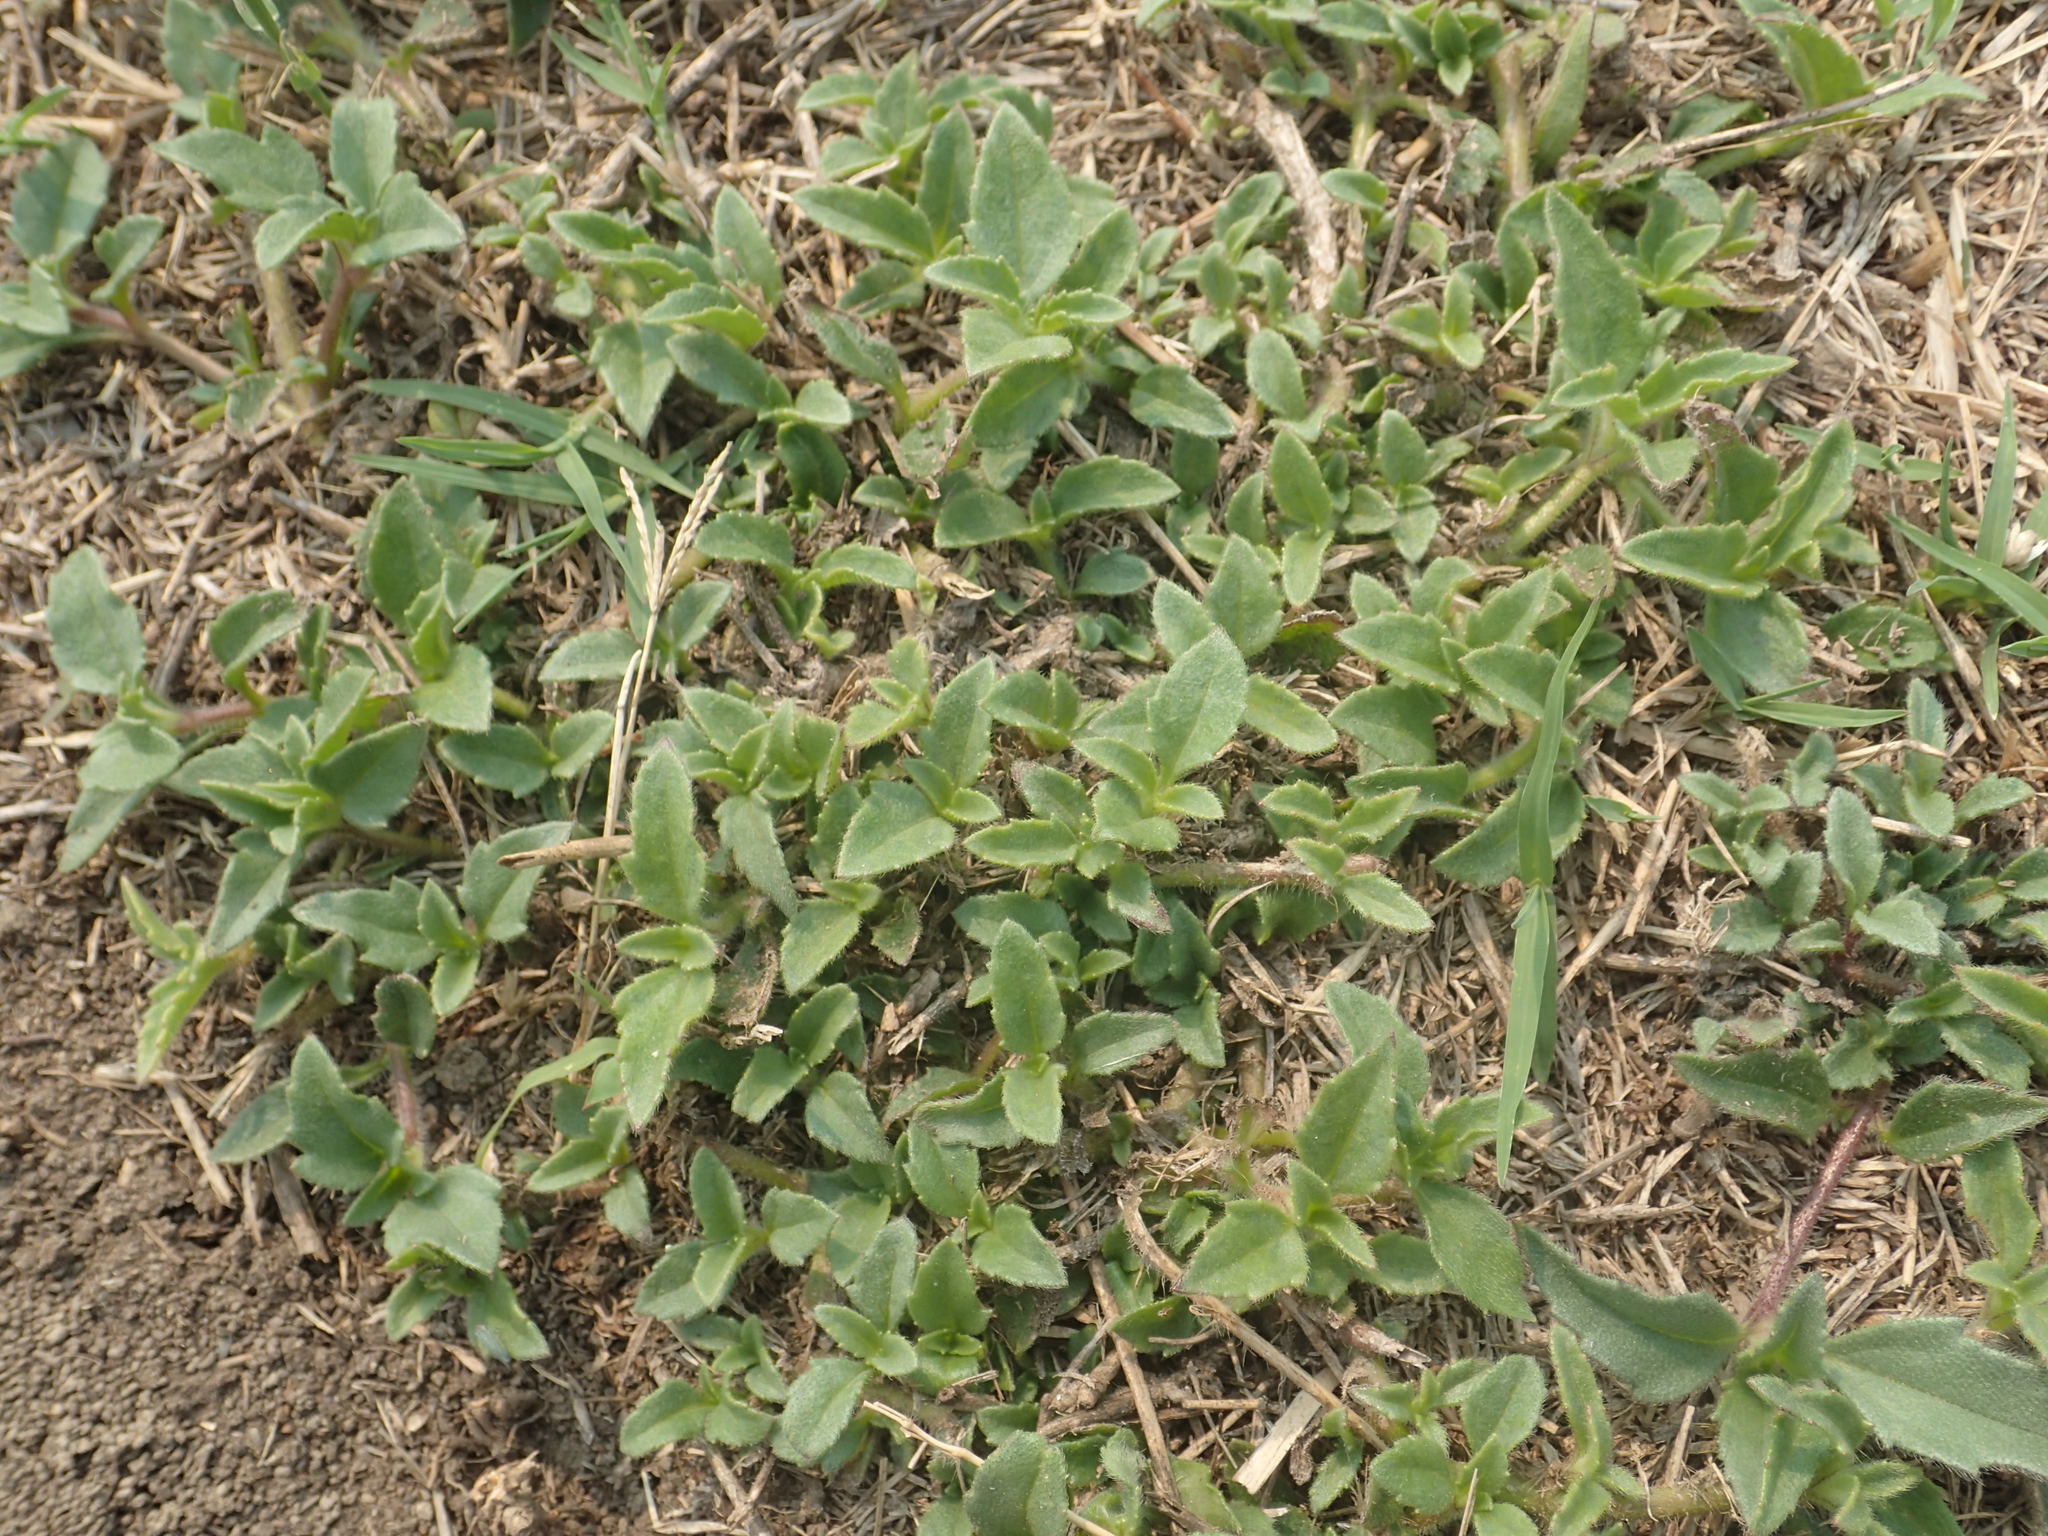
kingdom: Plantae
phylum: Tracheophyta
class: Magnoliopsida
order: Asterales
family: Asteraceae
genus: Tridax
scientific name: Tridax procumbens
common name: Coatbuttons
